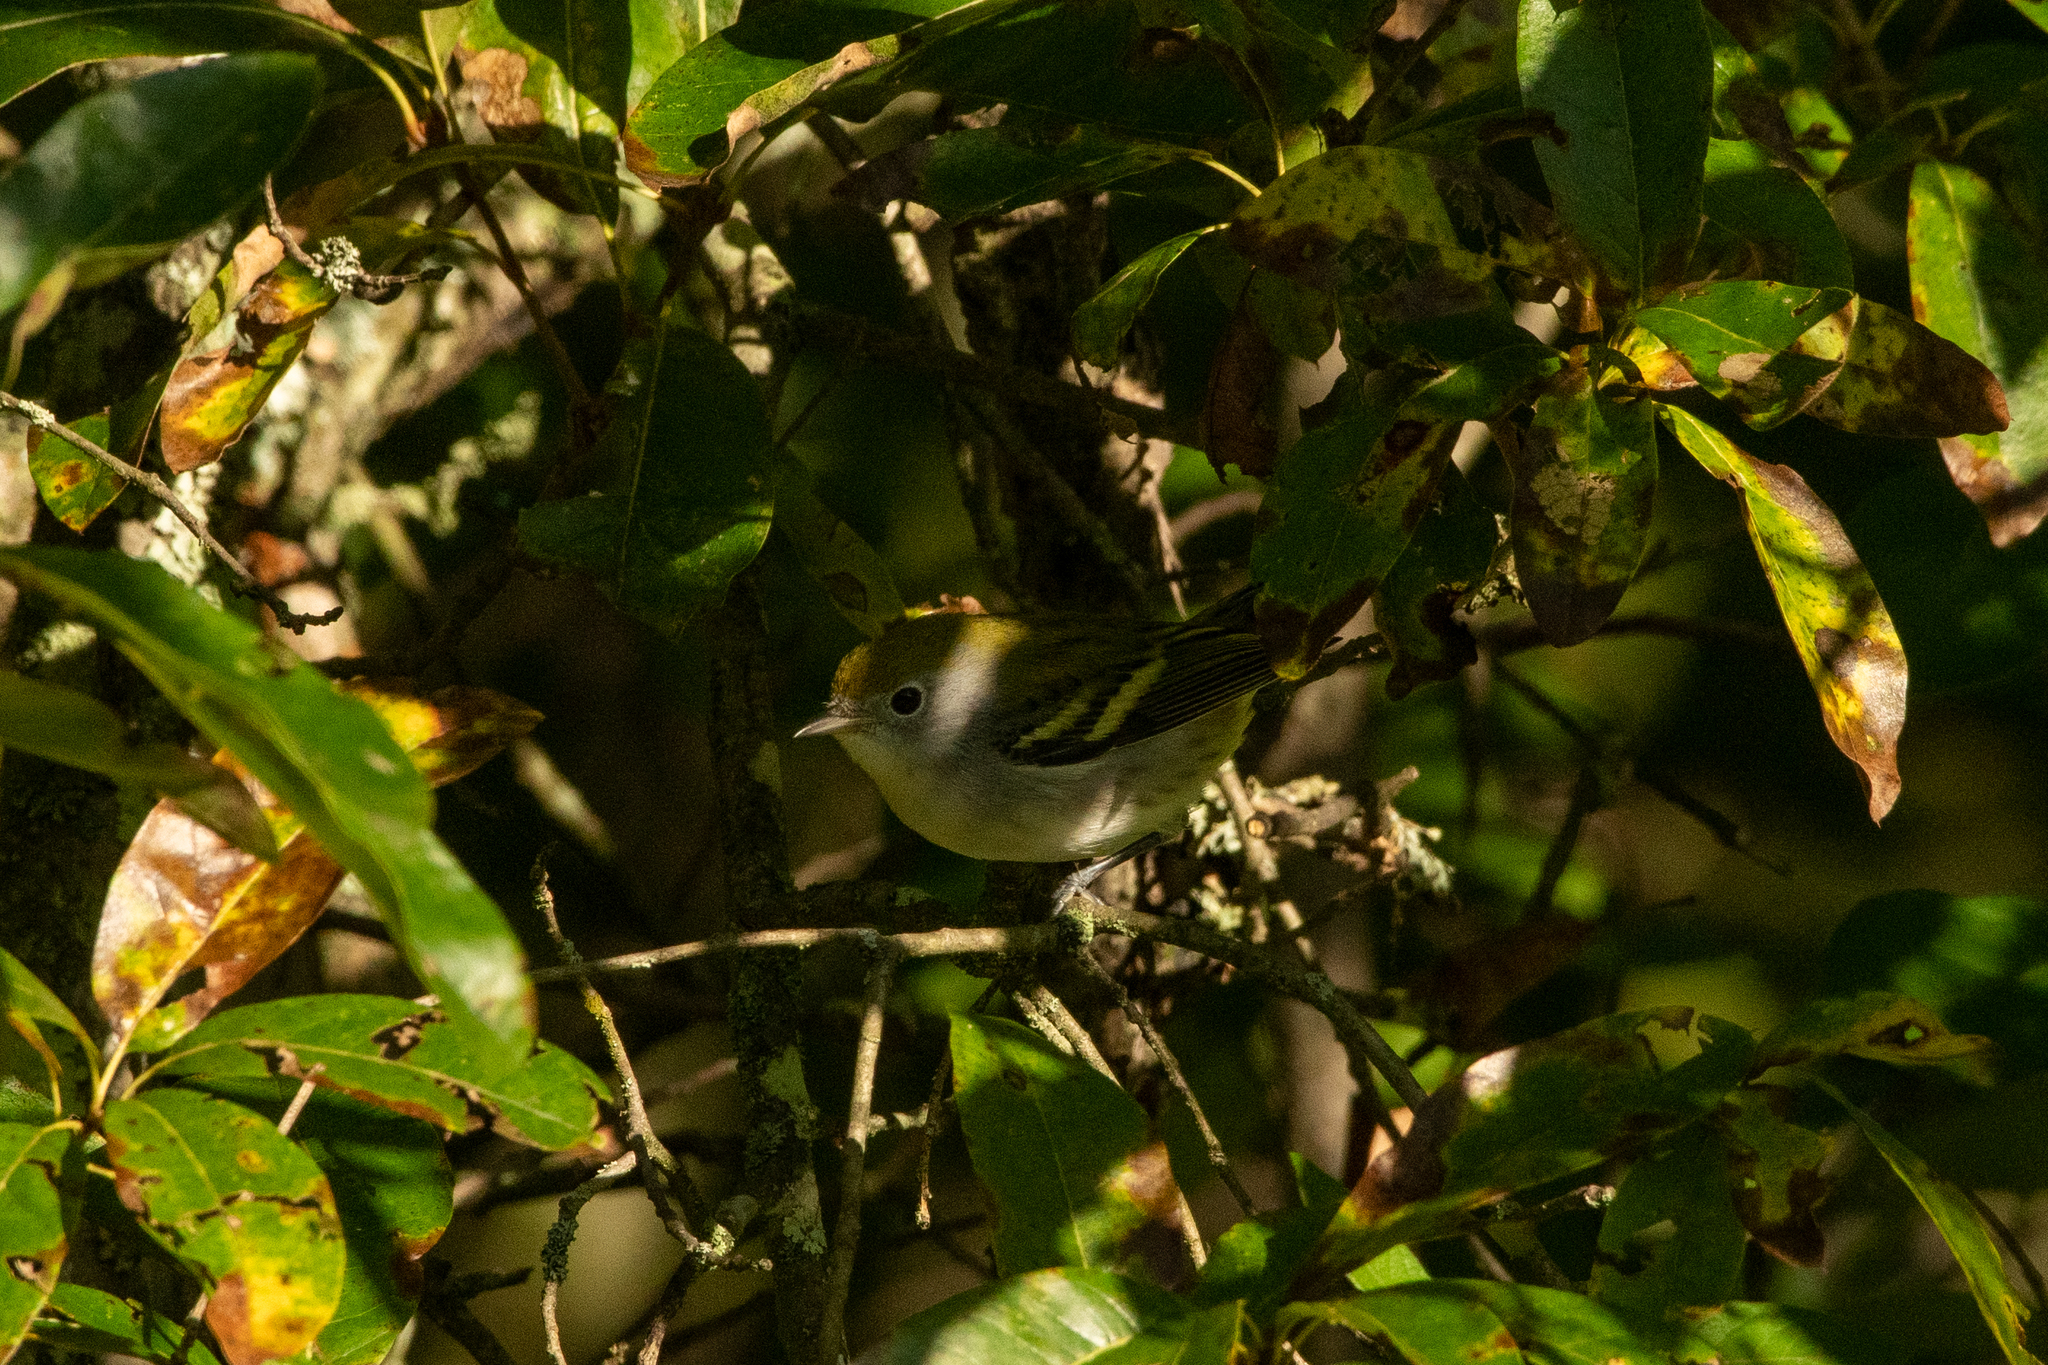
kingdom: Animalia
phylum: Chordata
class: Aves
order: Passeriformes
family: Parulidae
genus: Setophaga
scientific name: Setophaga pensylvanica
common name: Chestnut-sided warbler
